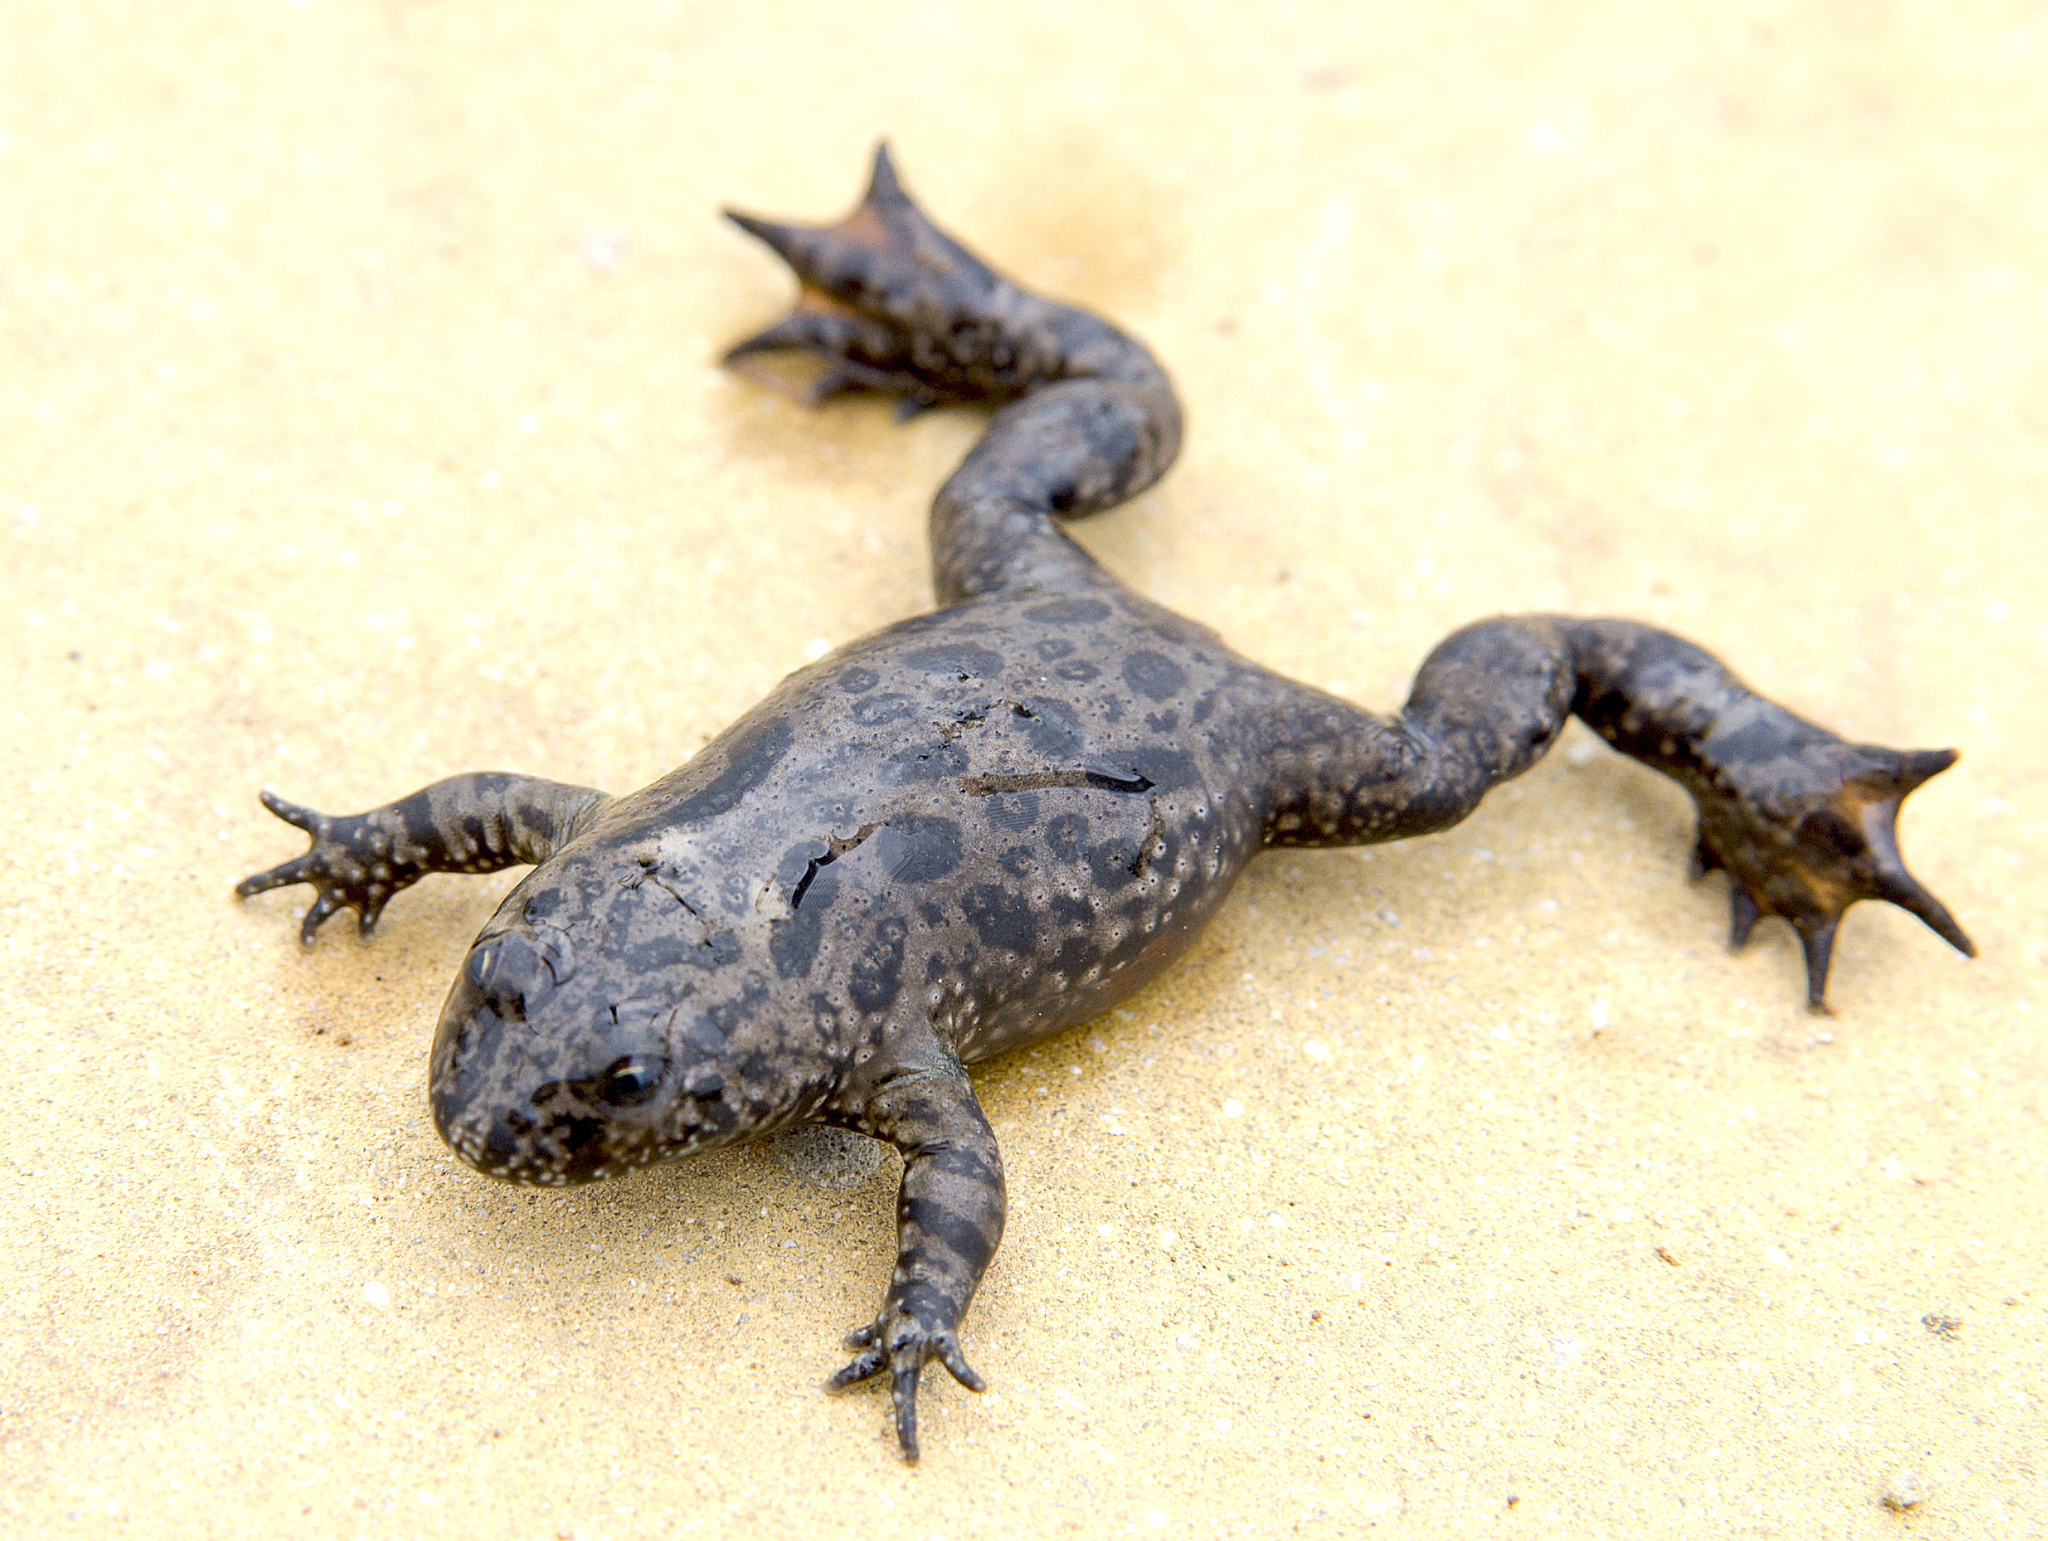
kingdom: Animalia
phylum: Chordata
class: Amphibia
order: Anura
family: Bombinatoridae
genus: Bombina
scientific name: Bombina bombina
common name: Fire-bellied toad
